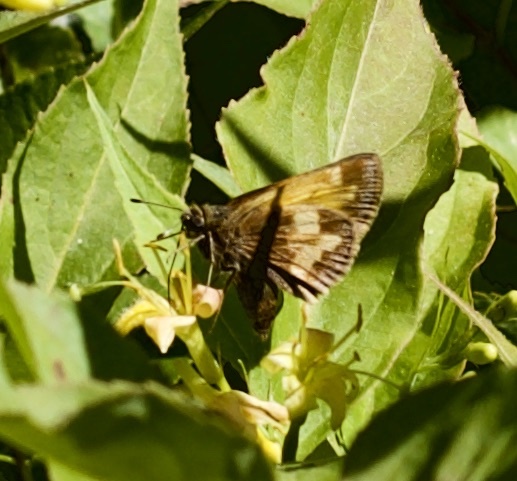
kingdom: Animalia
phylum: Arthropoda
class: Insecta
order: Lepidoptera
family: Hesperiidae
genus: Lon
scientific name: Lon hobomok
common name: Hobomok skipper
